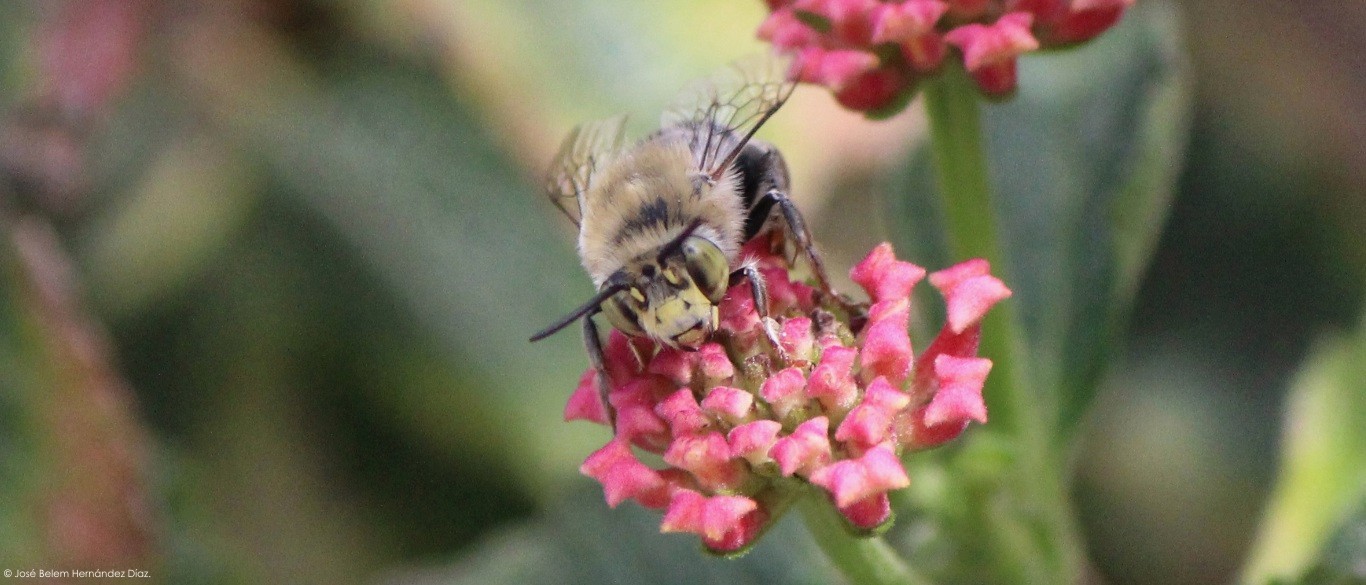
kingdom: Animalia
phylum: Arthropoda
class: Insecta
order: Hymenoptera
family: Apidae
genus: Anthophora
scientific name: Anthophora californica
